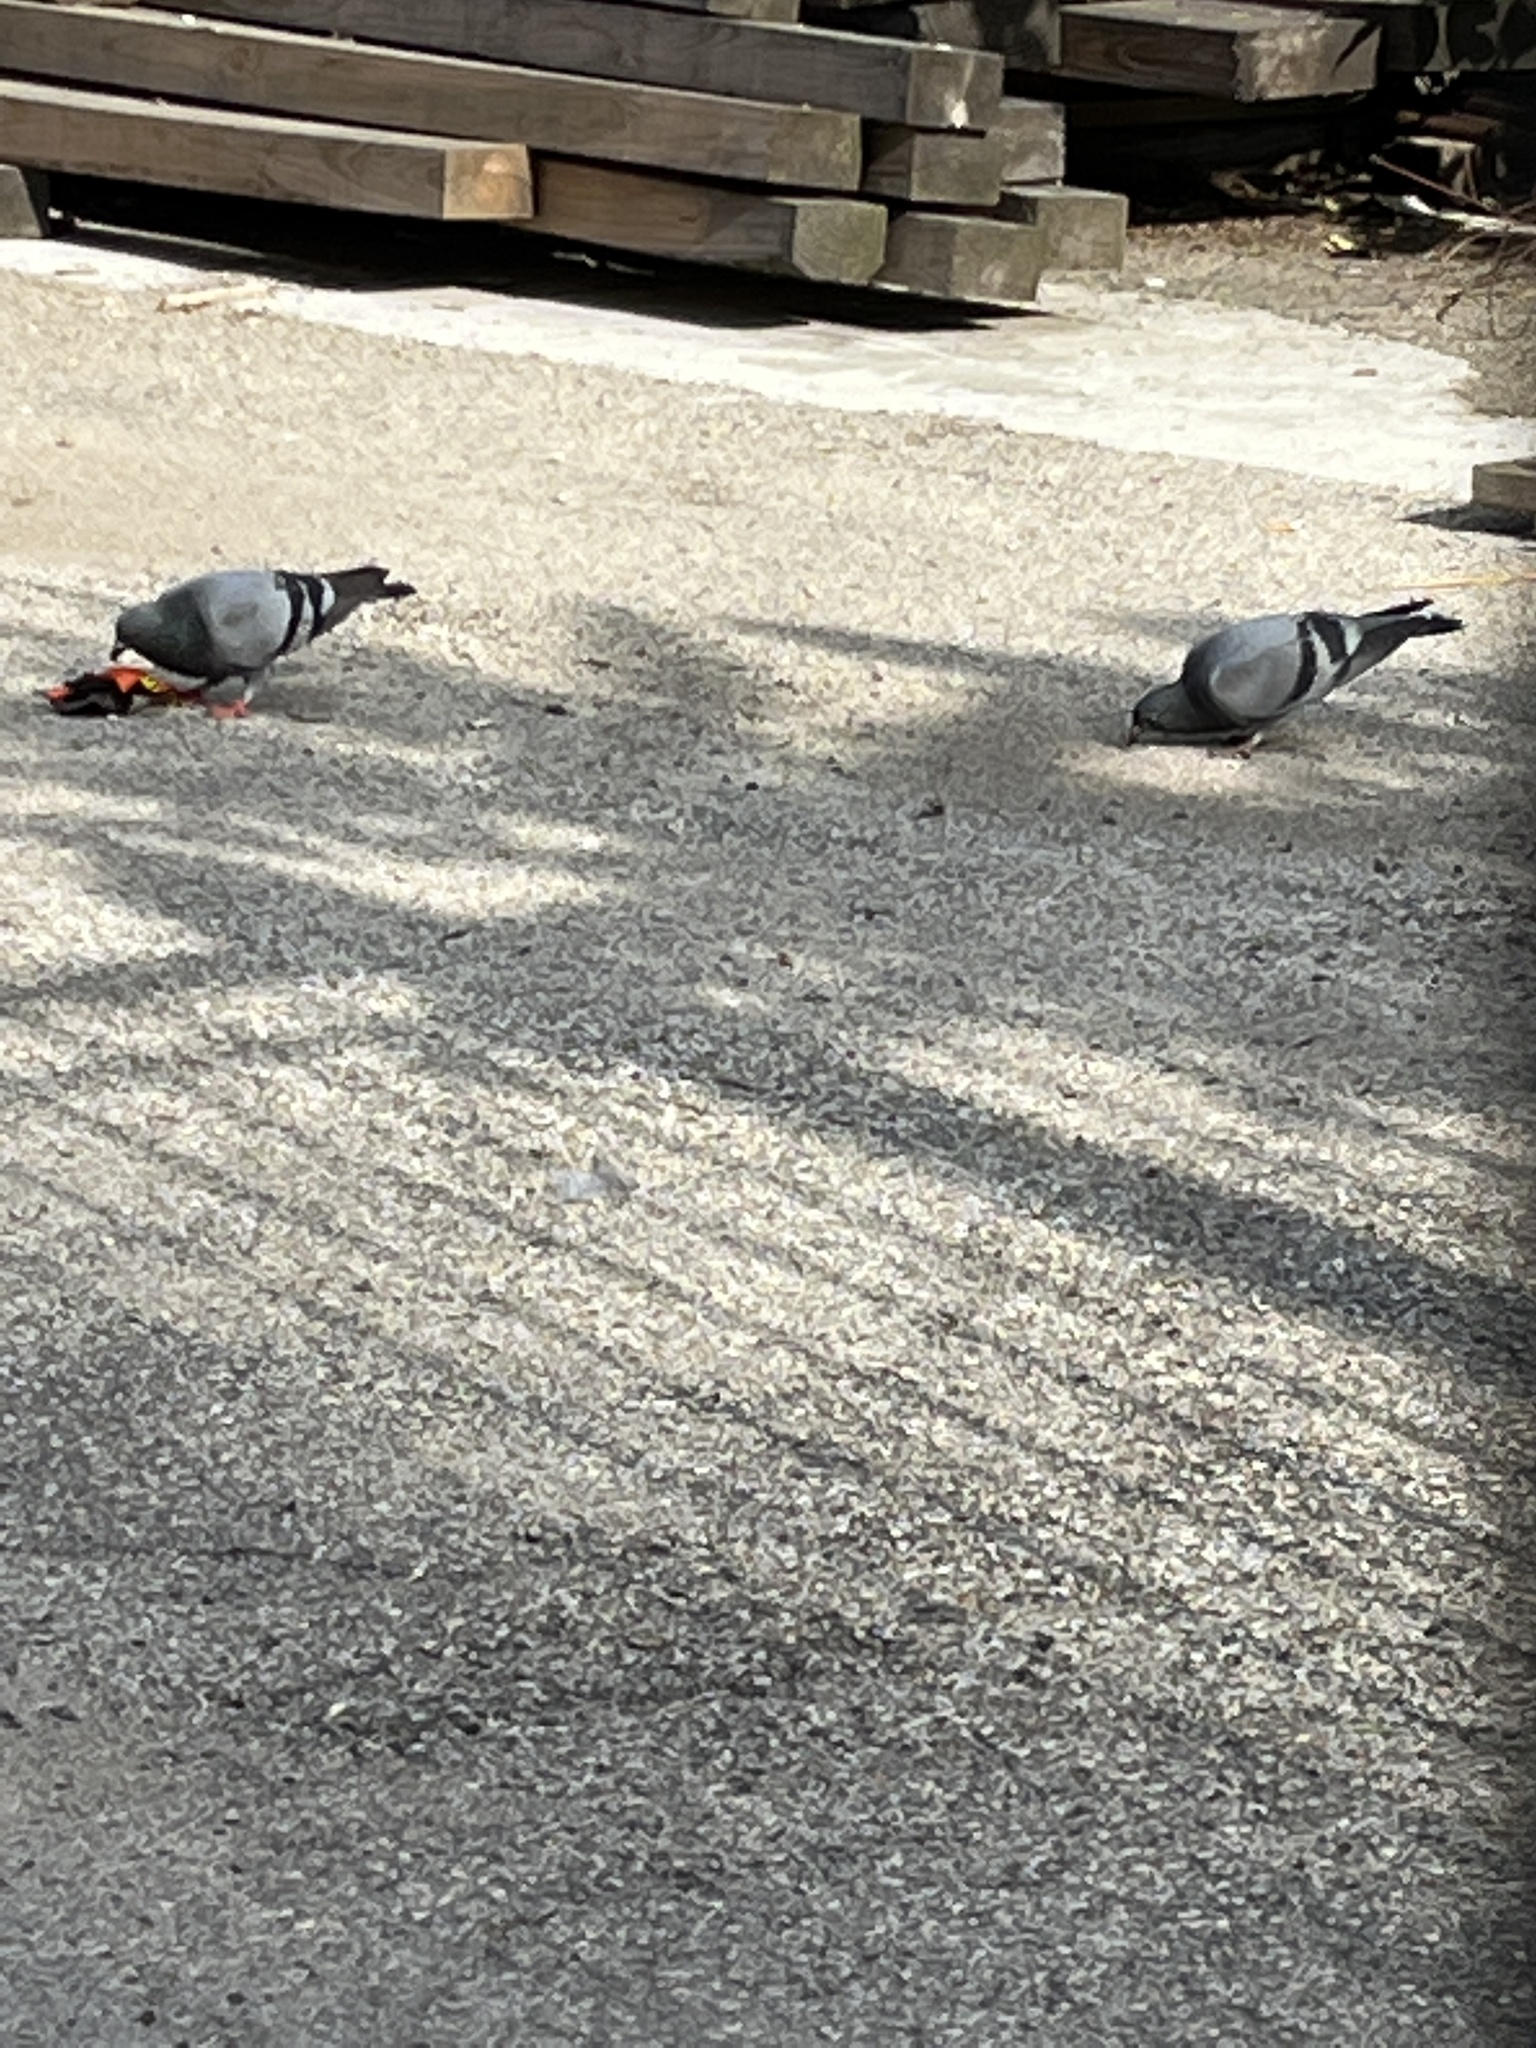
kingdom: Animalia
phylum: Chordata
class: Aves
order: Columbiformes
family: Columbidae
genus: Columba
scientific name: Columba livia
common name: Rock pigeon
